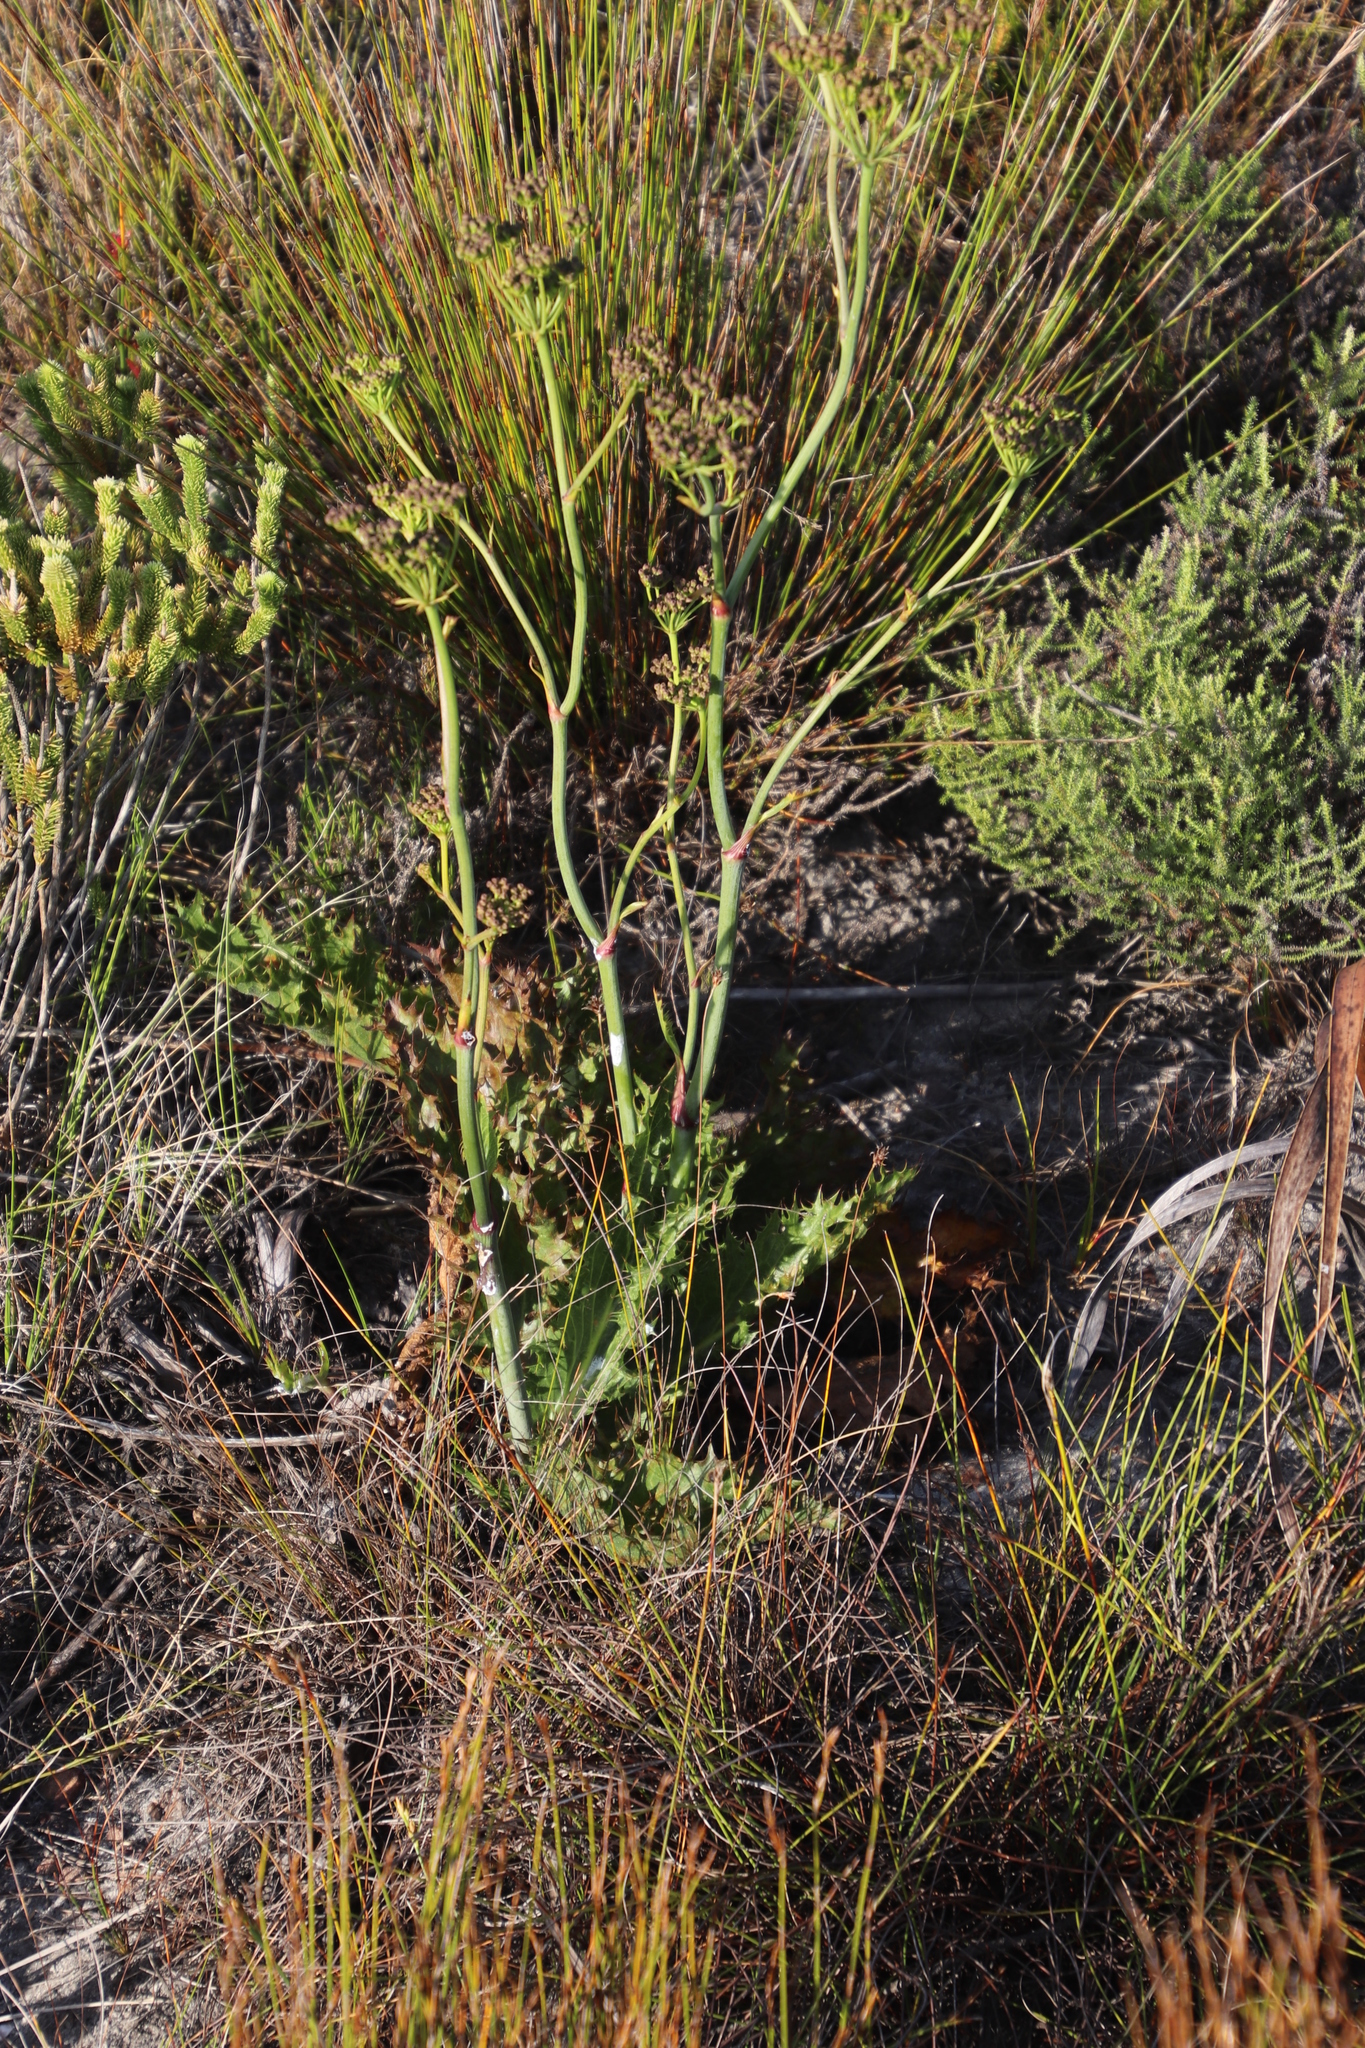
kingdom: Plantae
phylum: Tracheophyta
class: Magnoliopsida
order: Apiales
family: Apiaceae
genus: Lichtensteinia
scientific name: Lichtensteinia lacera
